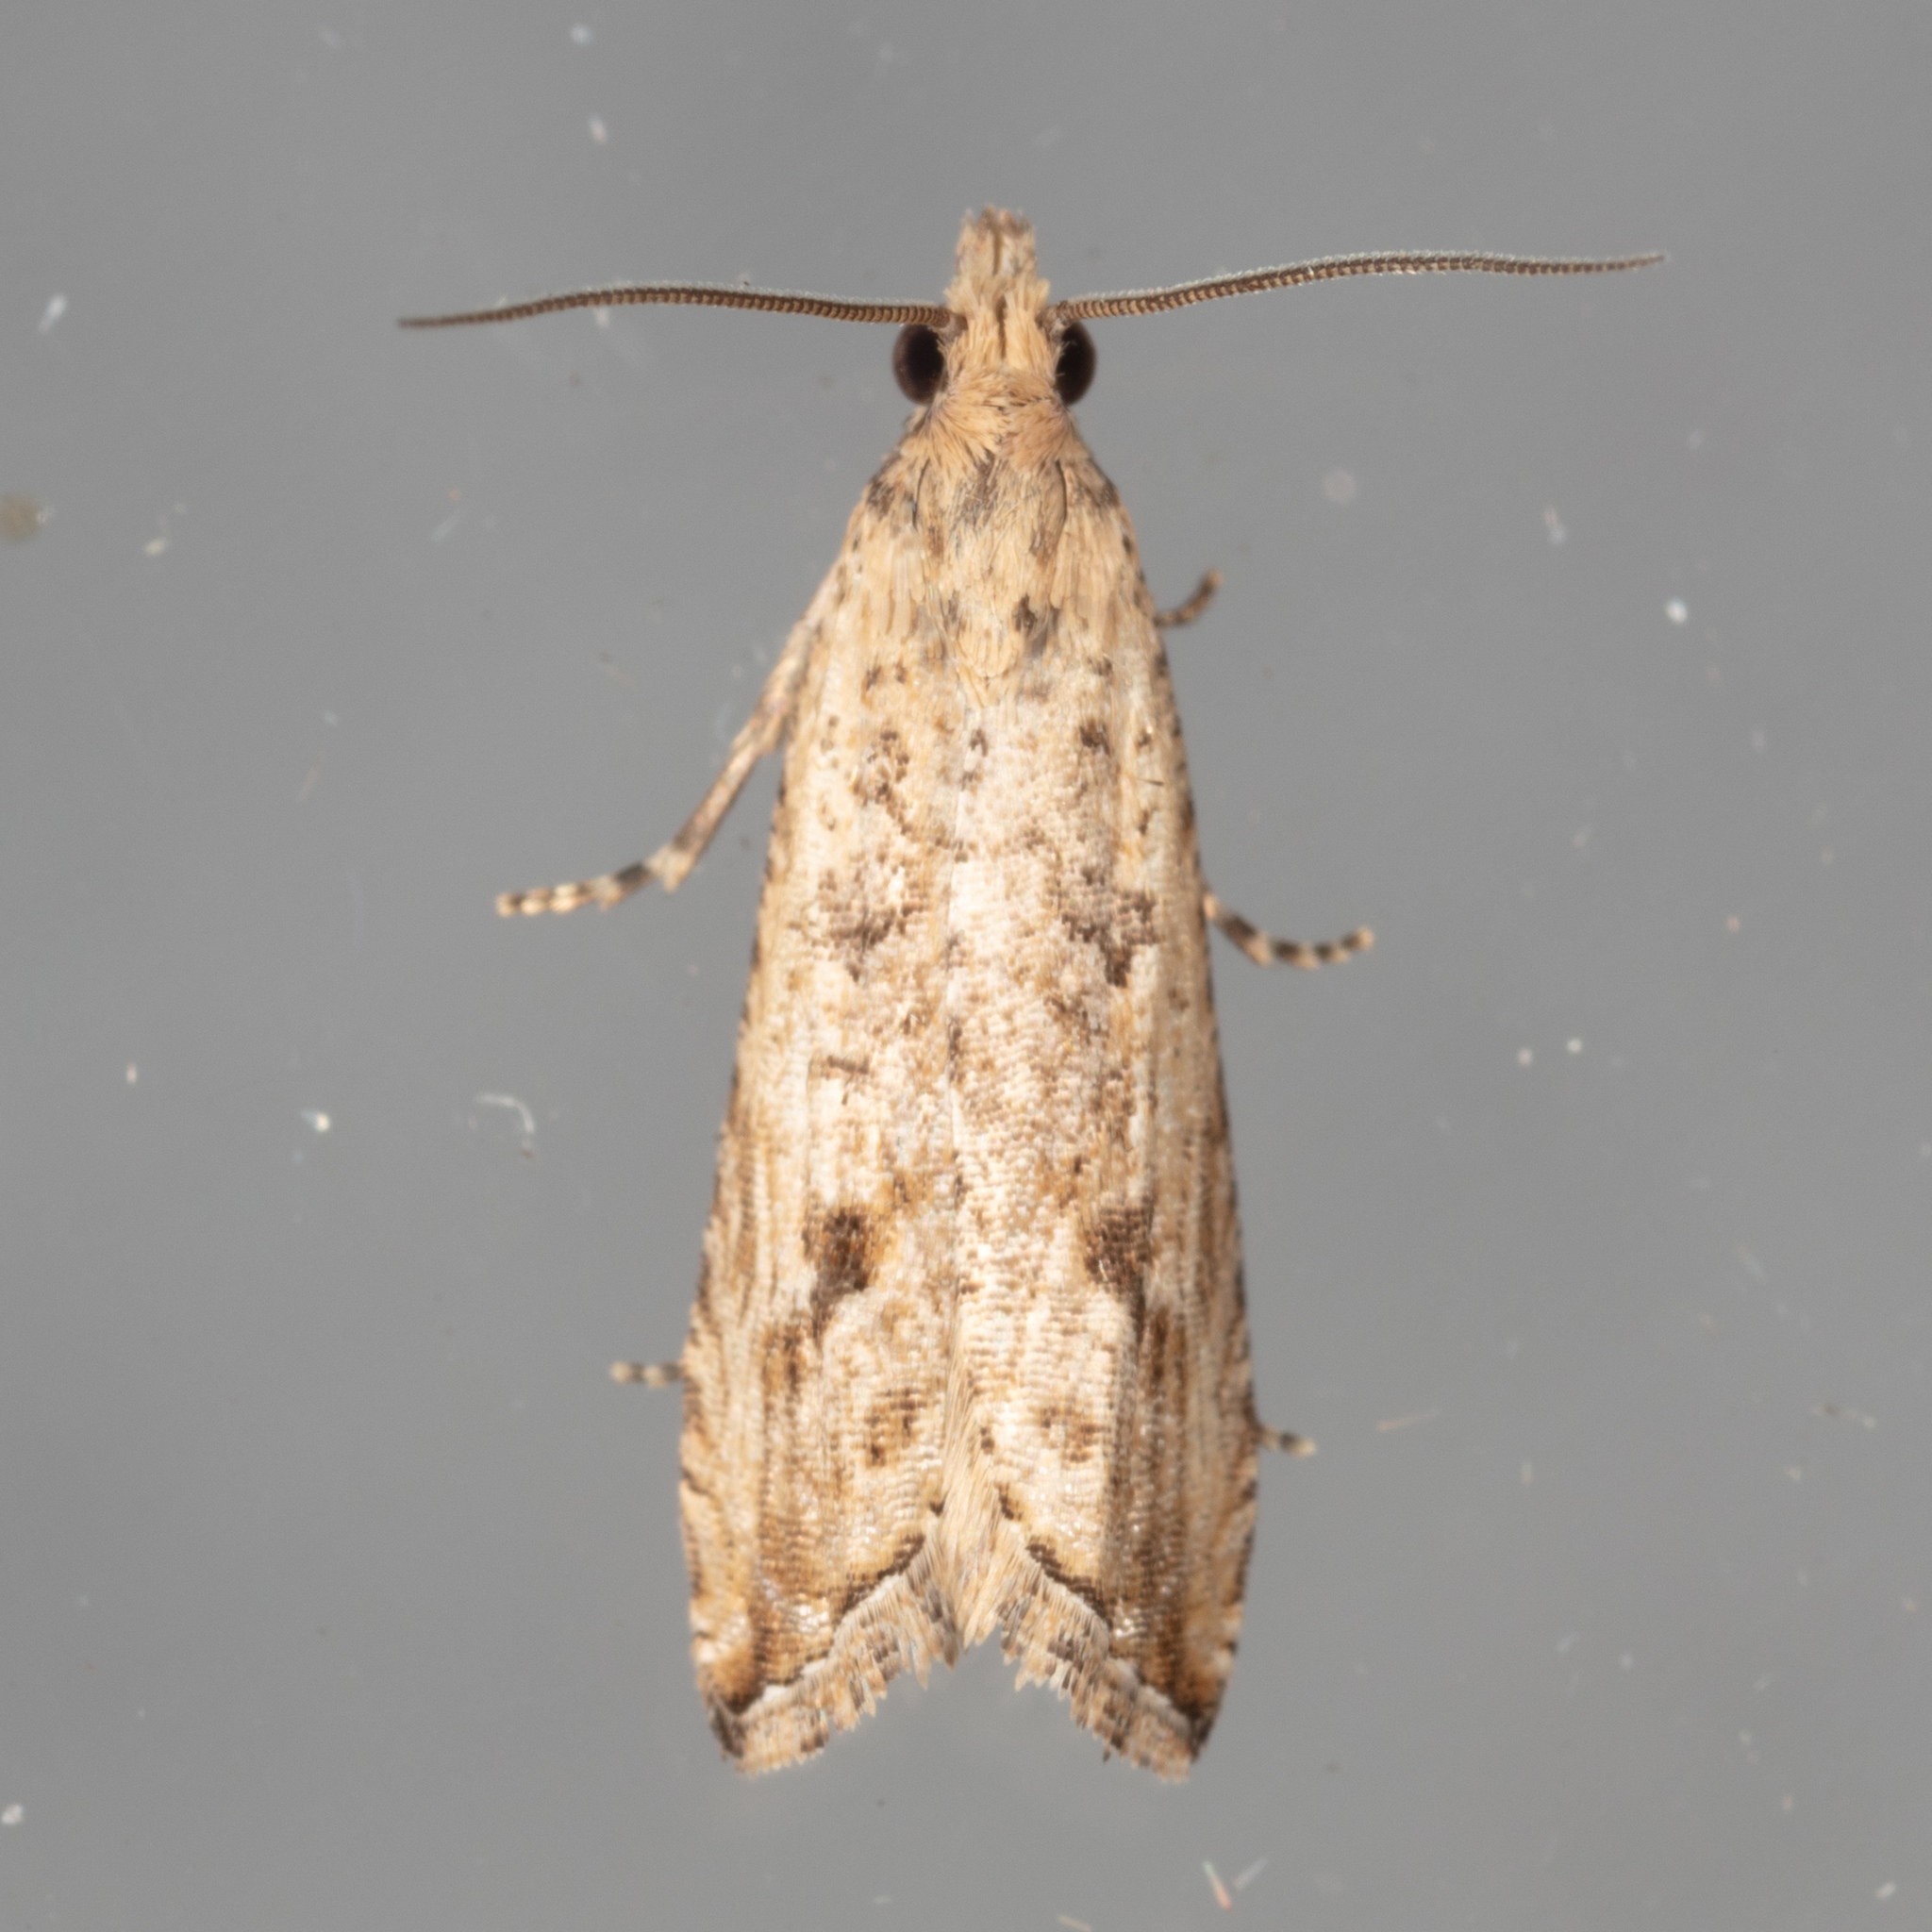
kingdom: Animalia
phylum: Arthropoda
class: Insecta
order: Lepidoptera
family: Tortricidae
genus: Bactra
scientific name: Bactra verutana
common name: Javelin moth
